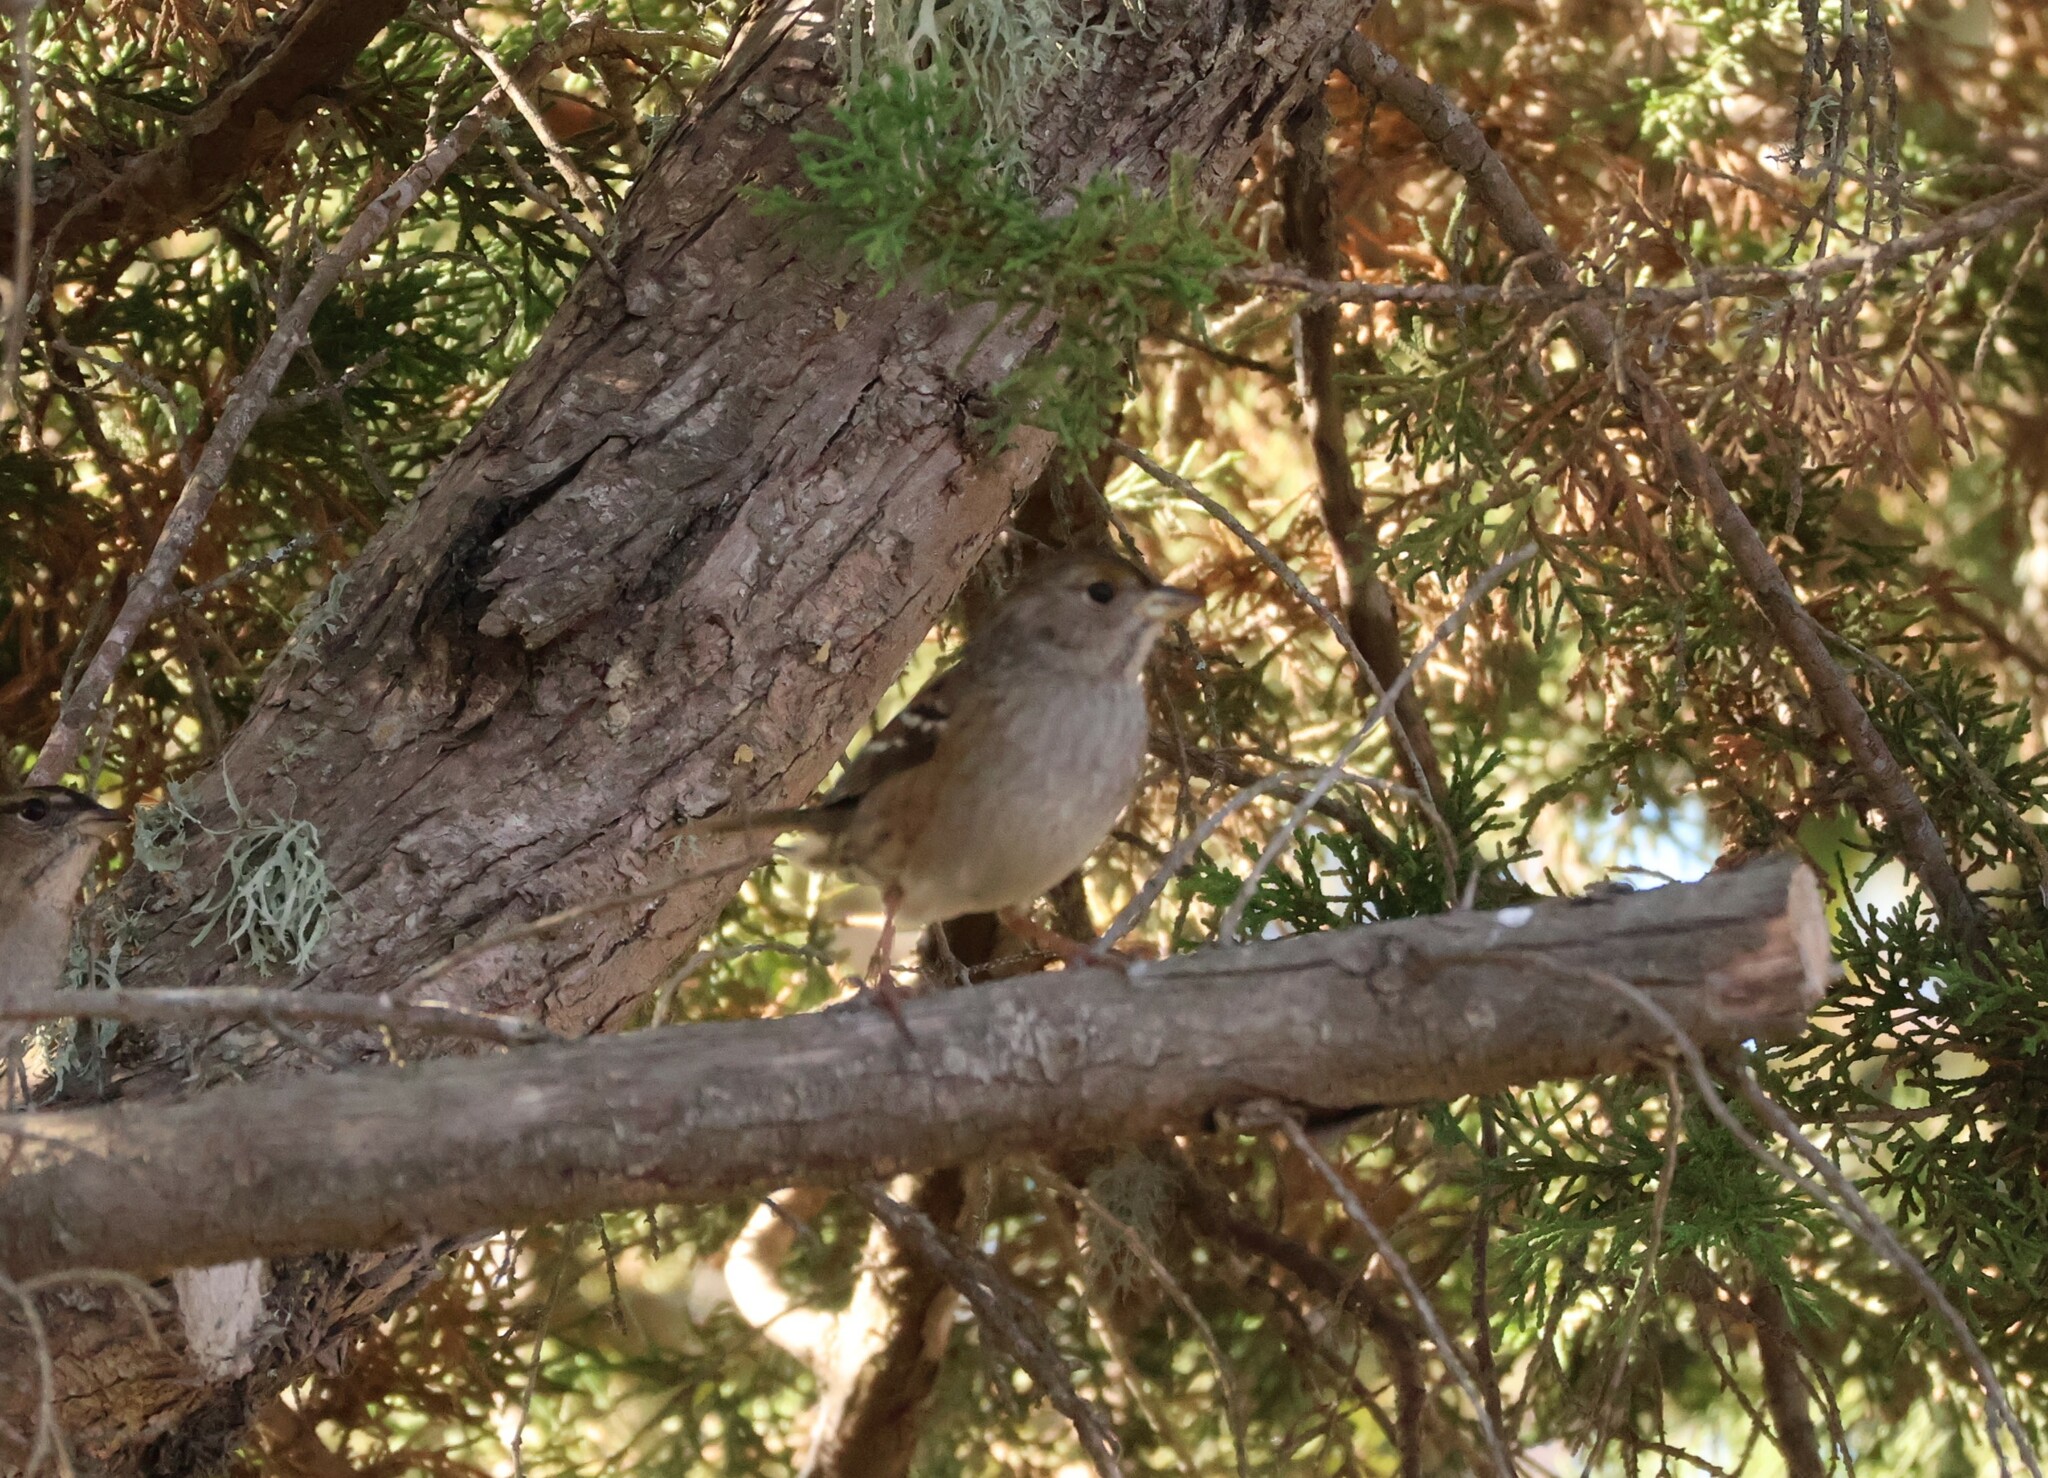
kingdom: Animalia
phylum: Chordata
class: Aves
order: Passeriformes
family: Passerellidae
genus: Zonotrichia
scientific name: Zonotrichia atricapilla
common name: Golden-crowned sparrow
